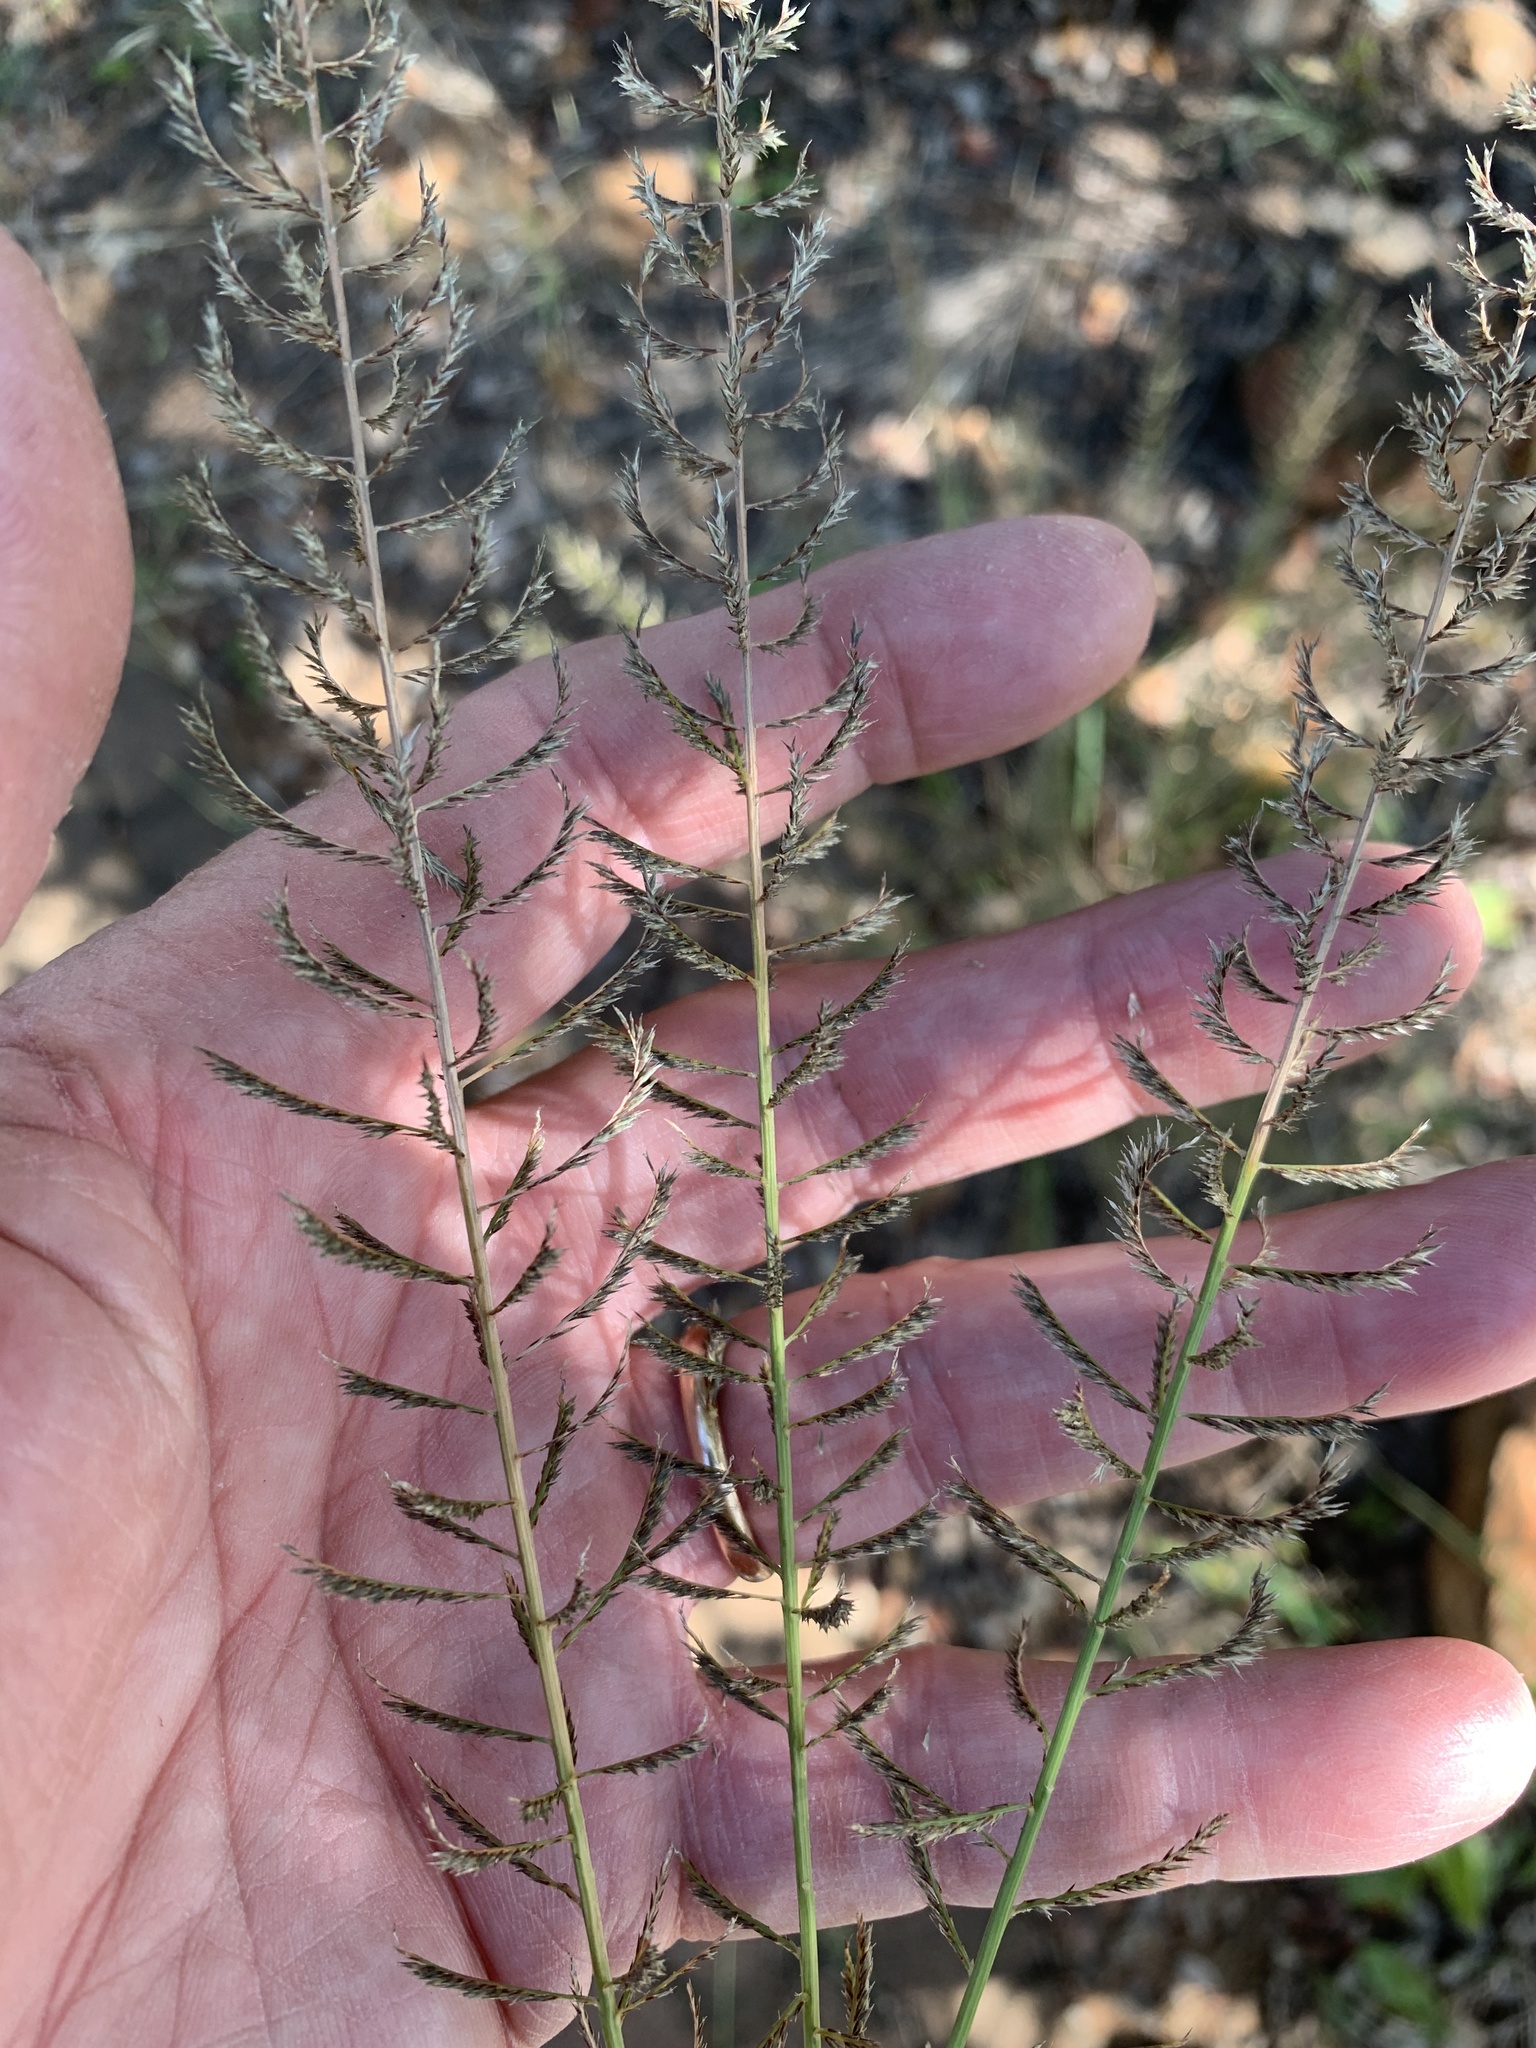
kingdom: Plantae
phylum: Tracheophyta
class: Liliopsida
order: Poales
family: Poaceae
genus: Pogonarthria
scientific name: Pogonarthria squarrosa
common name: Grass
